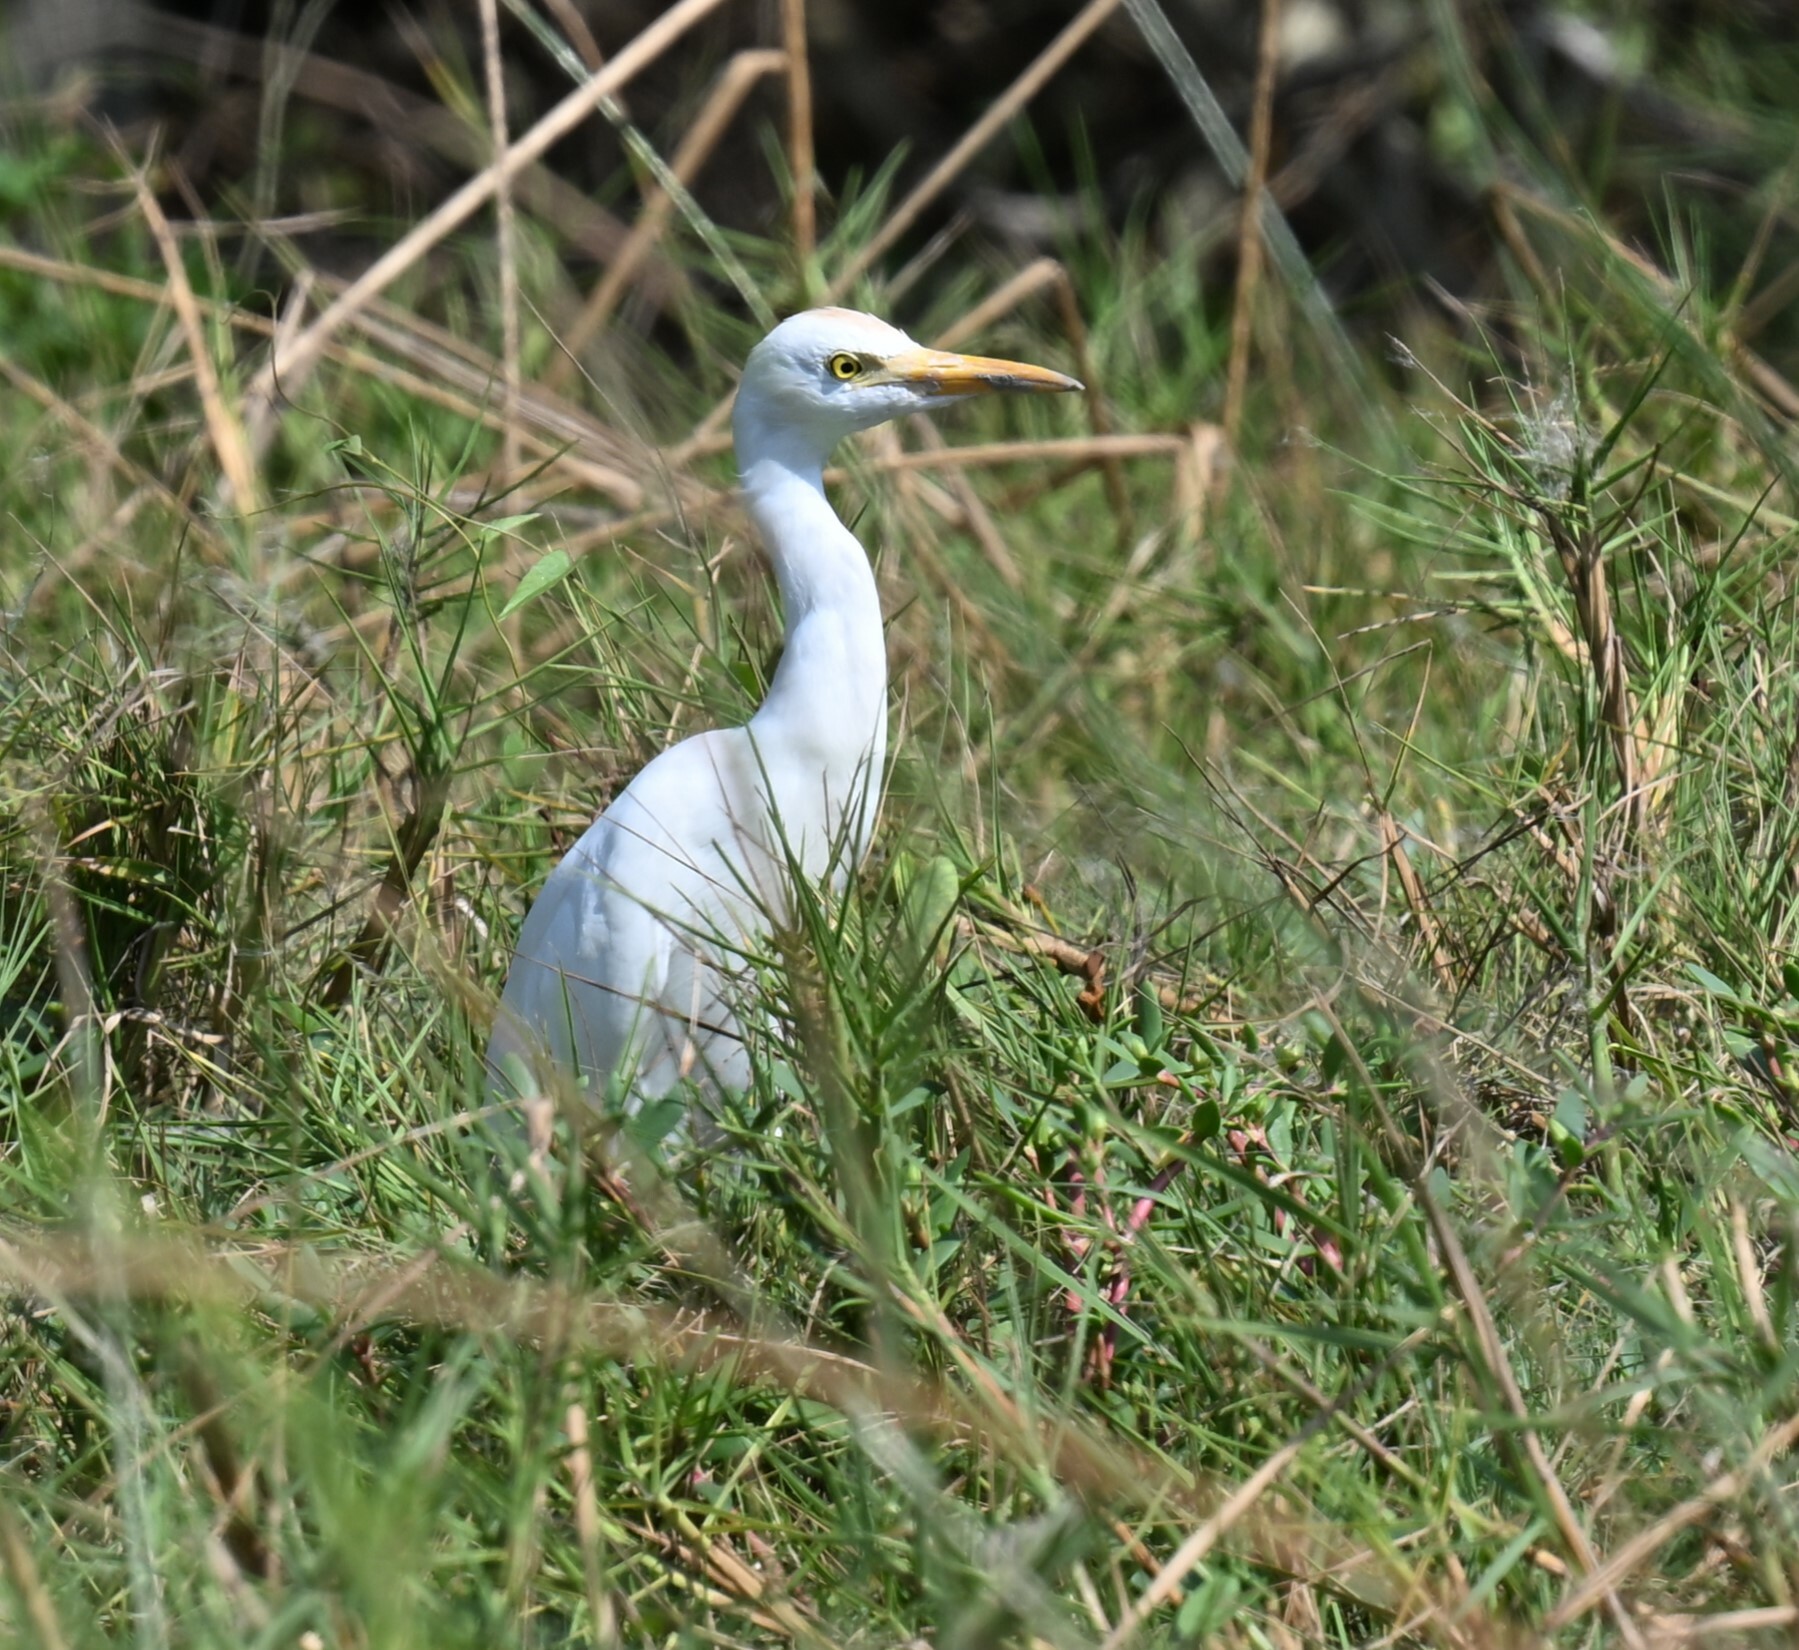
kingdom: Animalia
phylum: Chordata
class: Aves
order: Pelecaniformes
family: Ardeidae
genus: Bubulcus
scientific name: Bubulcus ibis
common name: Cattle egret
